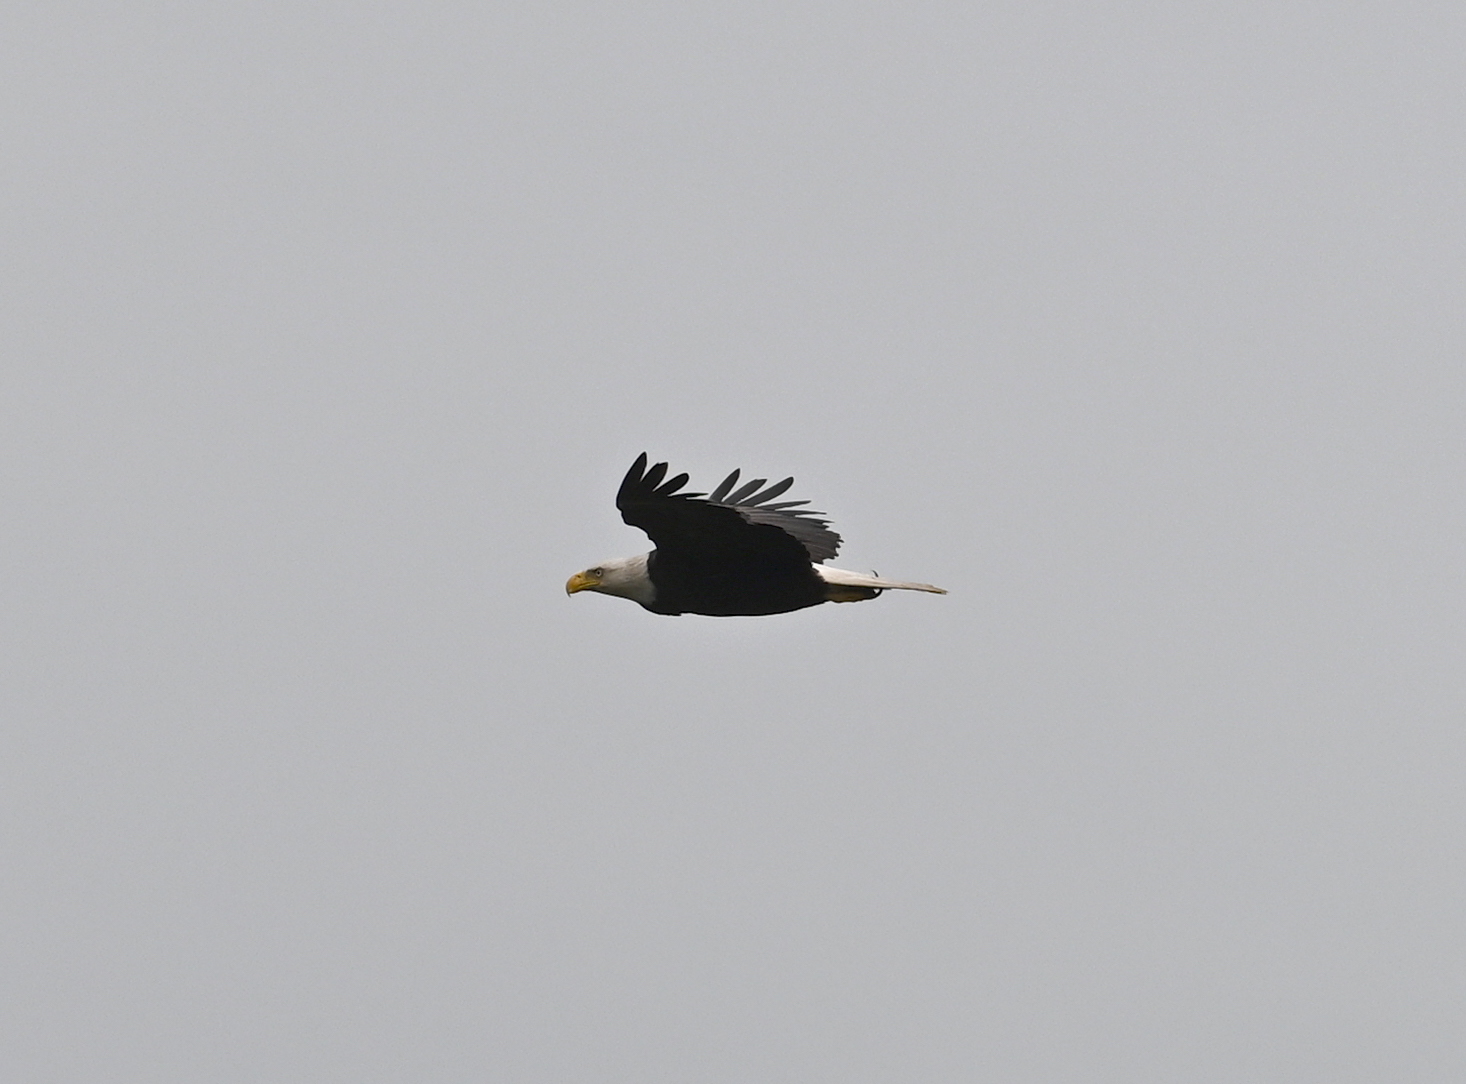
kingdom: Animalia
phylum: Chordata
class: Aves
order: Accipitriformes
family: Accipitridae
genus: Haliaeetus
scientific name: Haliaeetus leucocephalus
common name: Bald eagle
